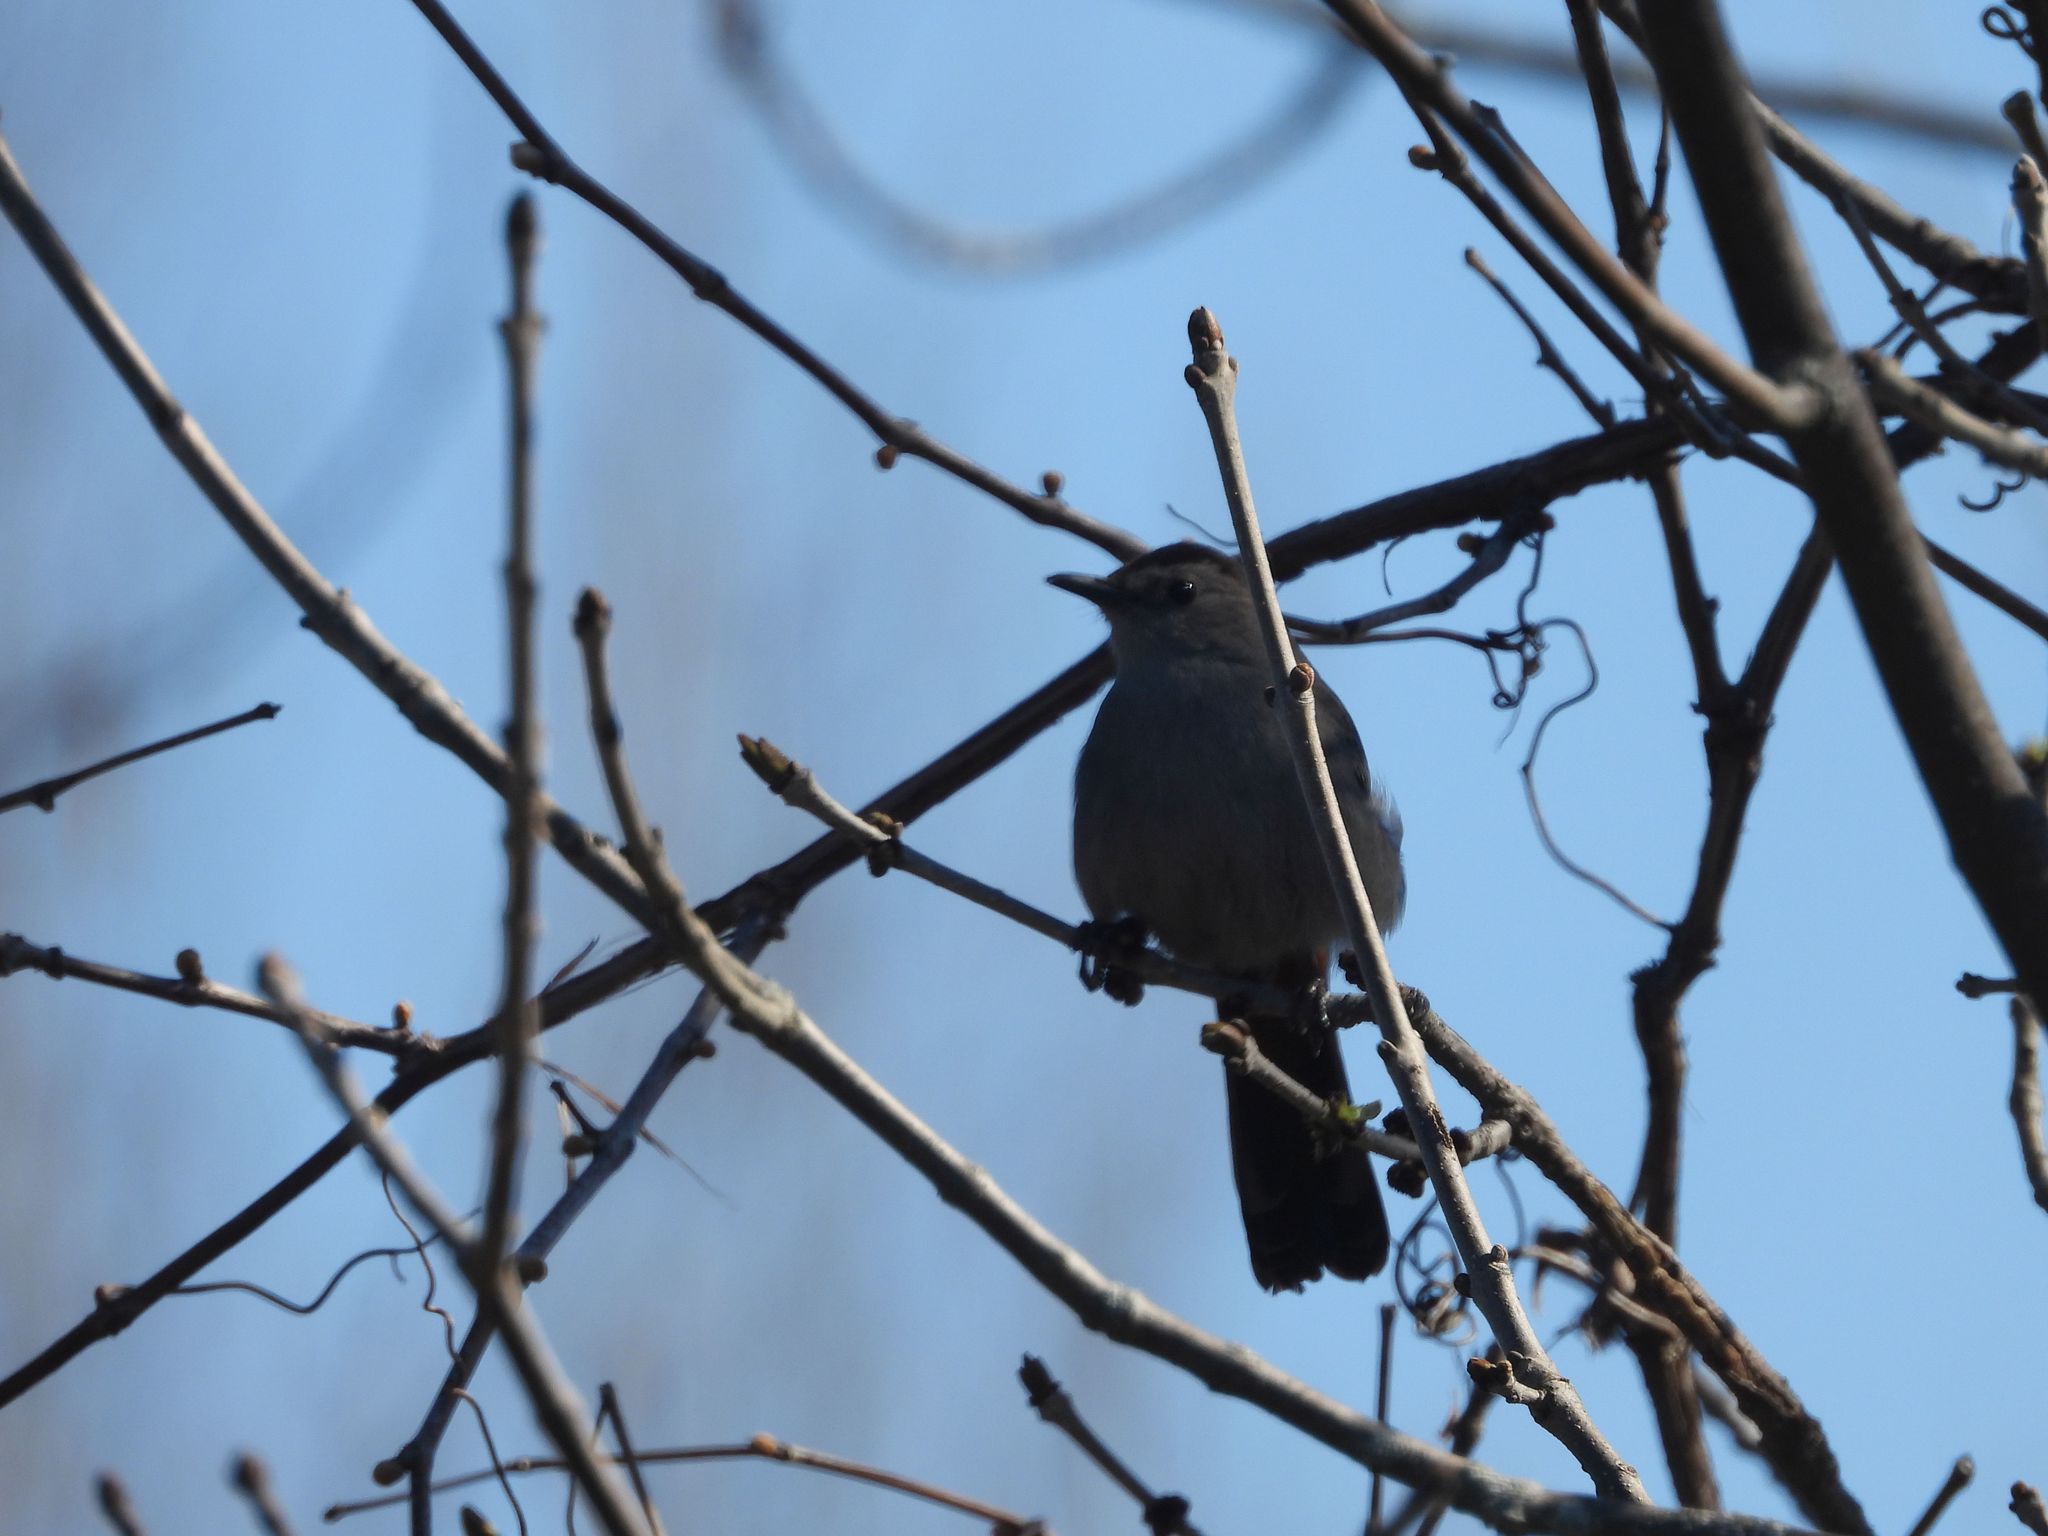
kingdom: Animalia
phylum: Chordata
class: Aves
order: Passeriformes
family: Mimidae
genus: Dumetella
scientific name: Dumetella carolinensis
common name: Gray catbird
